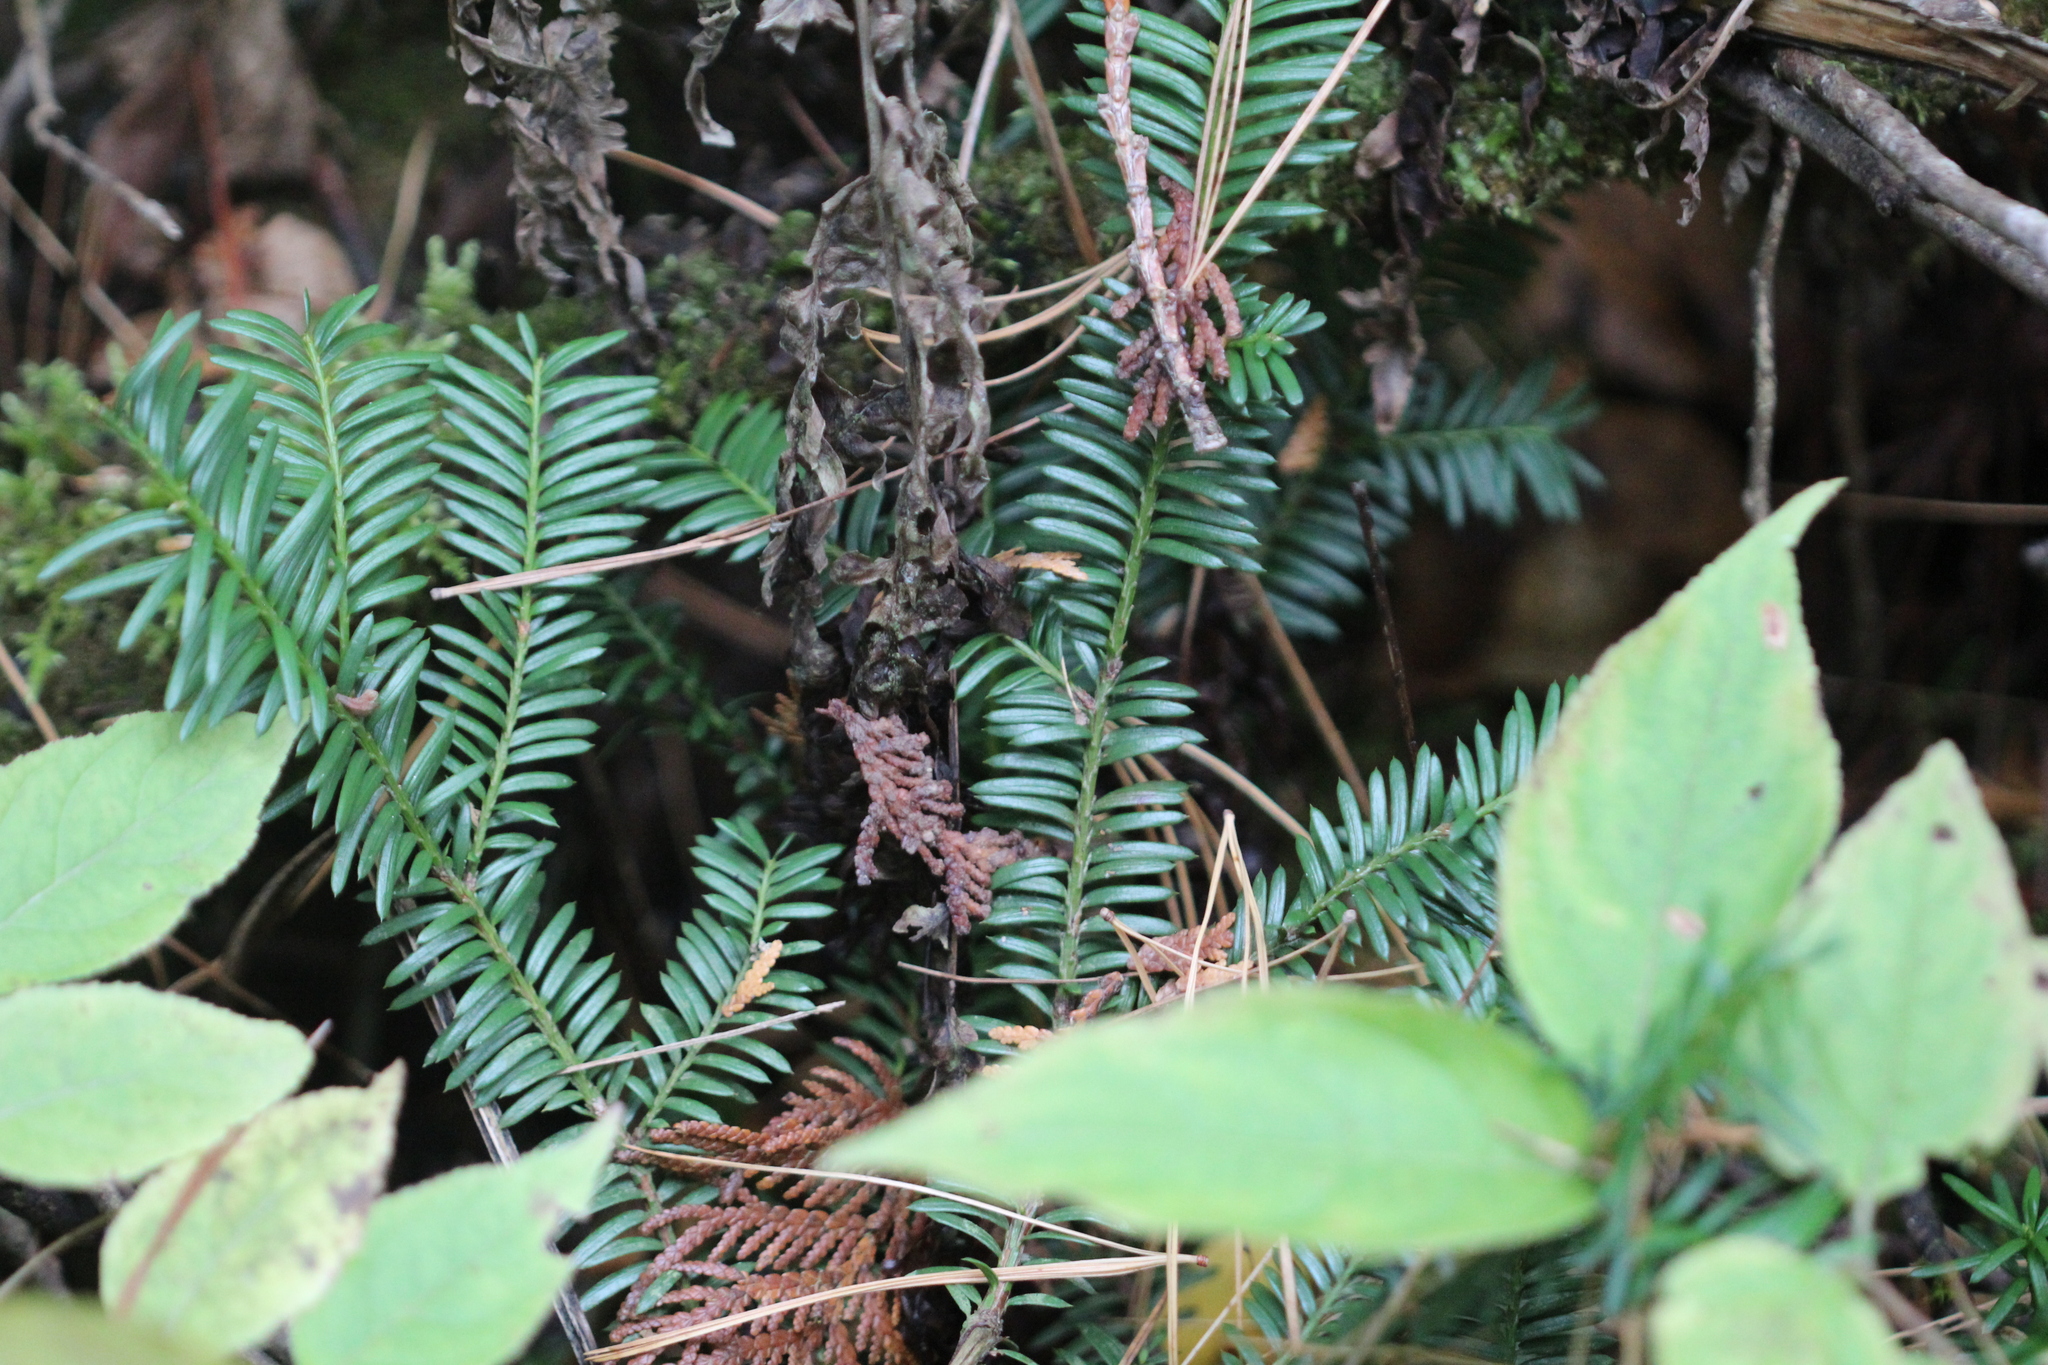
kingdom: Plantae
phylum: Tracheophyta
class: Pinopsida
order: Pinales
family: Taxaceae
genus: Taxus
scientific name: Taxus canadensis
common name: American yew
